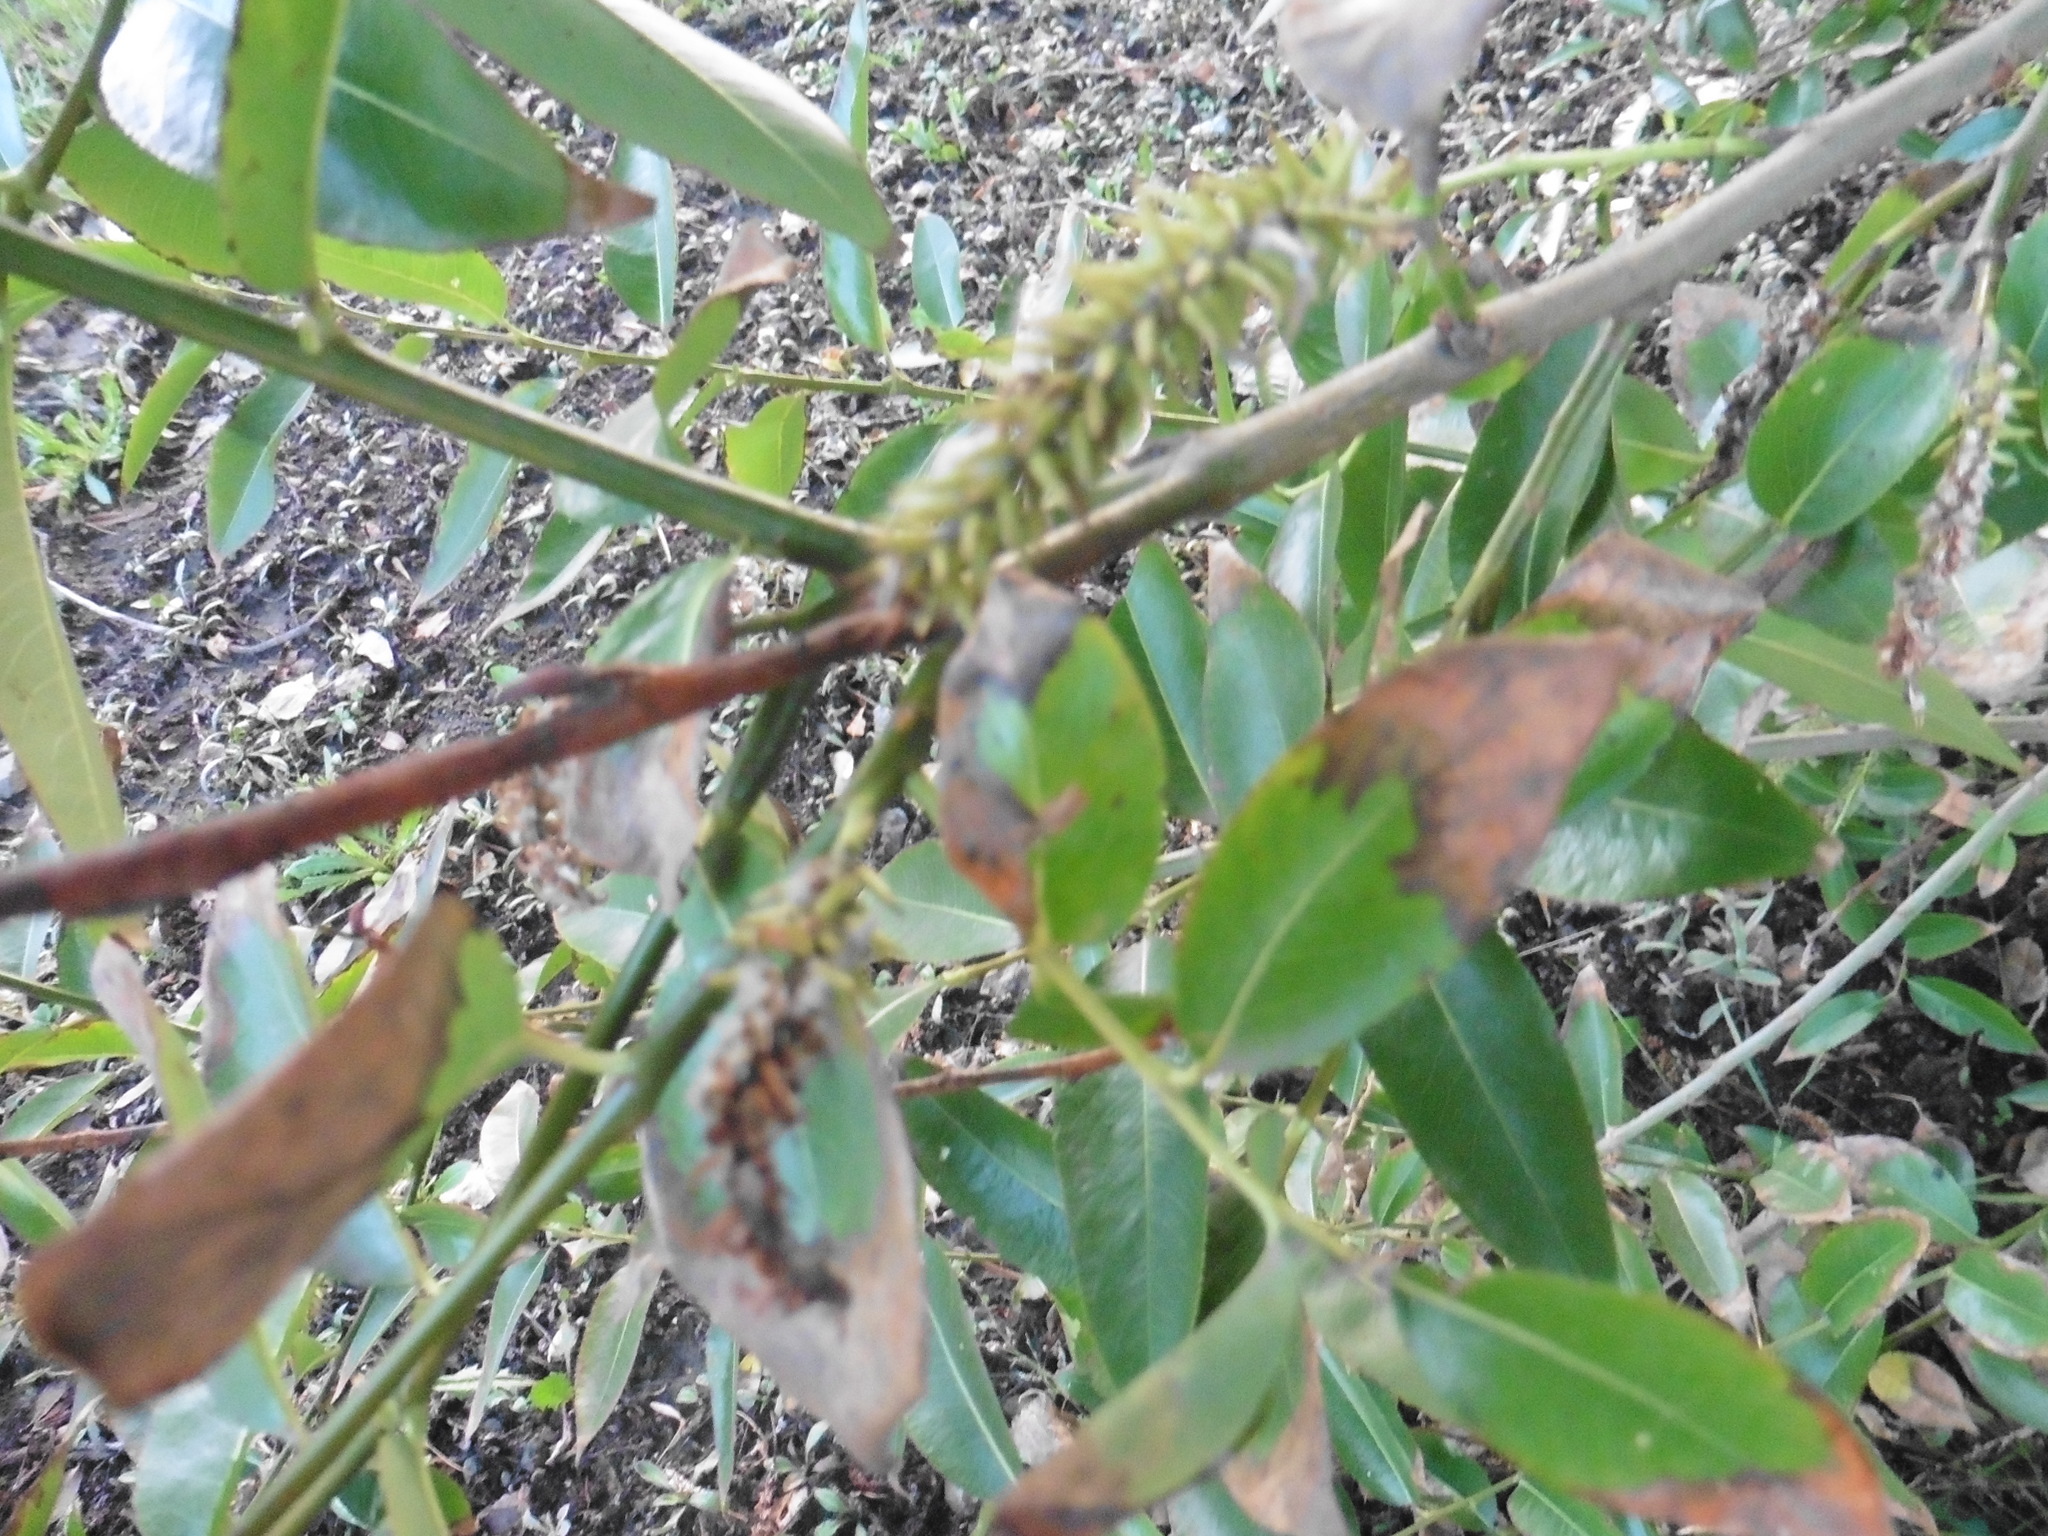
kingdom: Plantae
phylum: Tracheophyta
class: Magnoliopsida
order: Malpighiales
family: Salicaceae
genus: Salix
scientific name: Salix pentandra
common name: Bay willow
